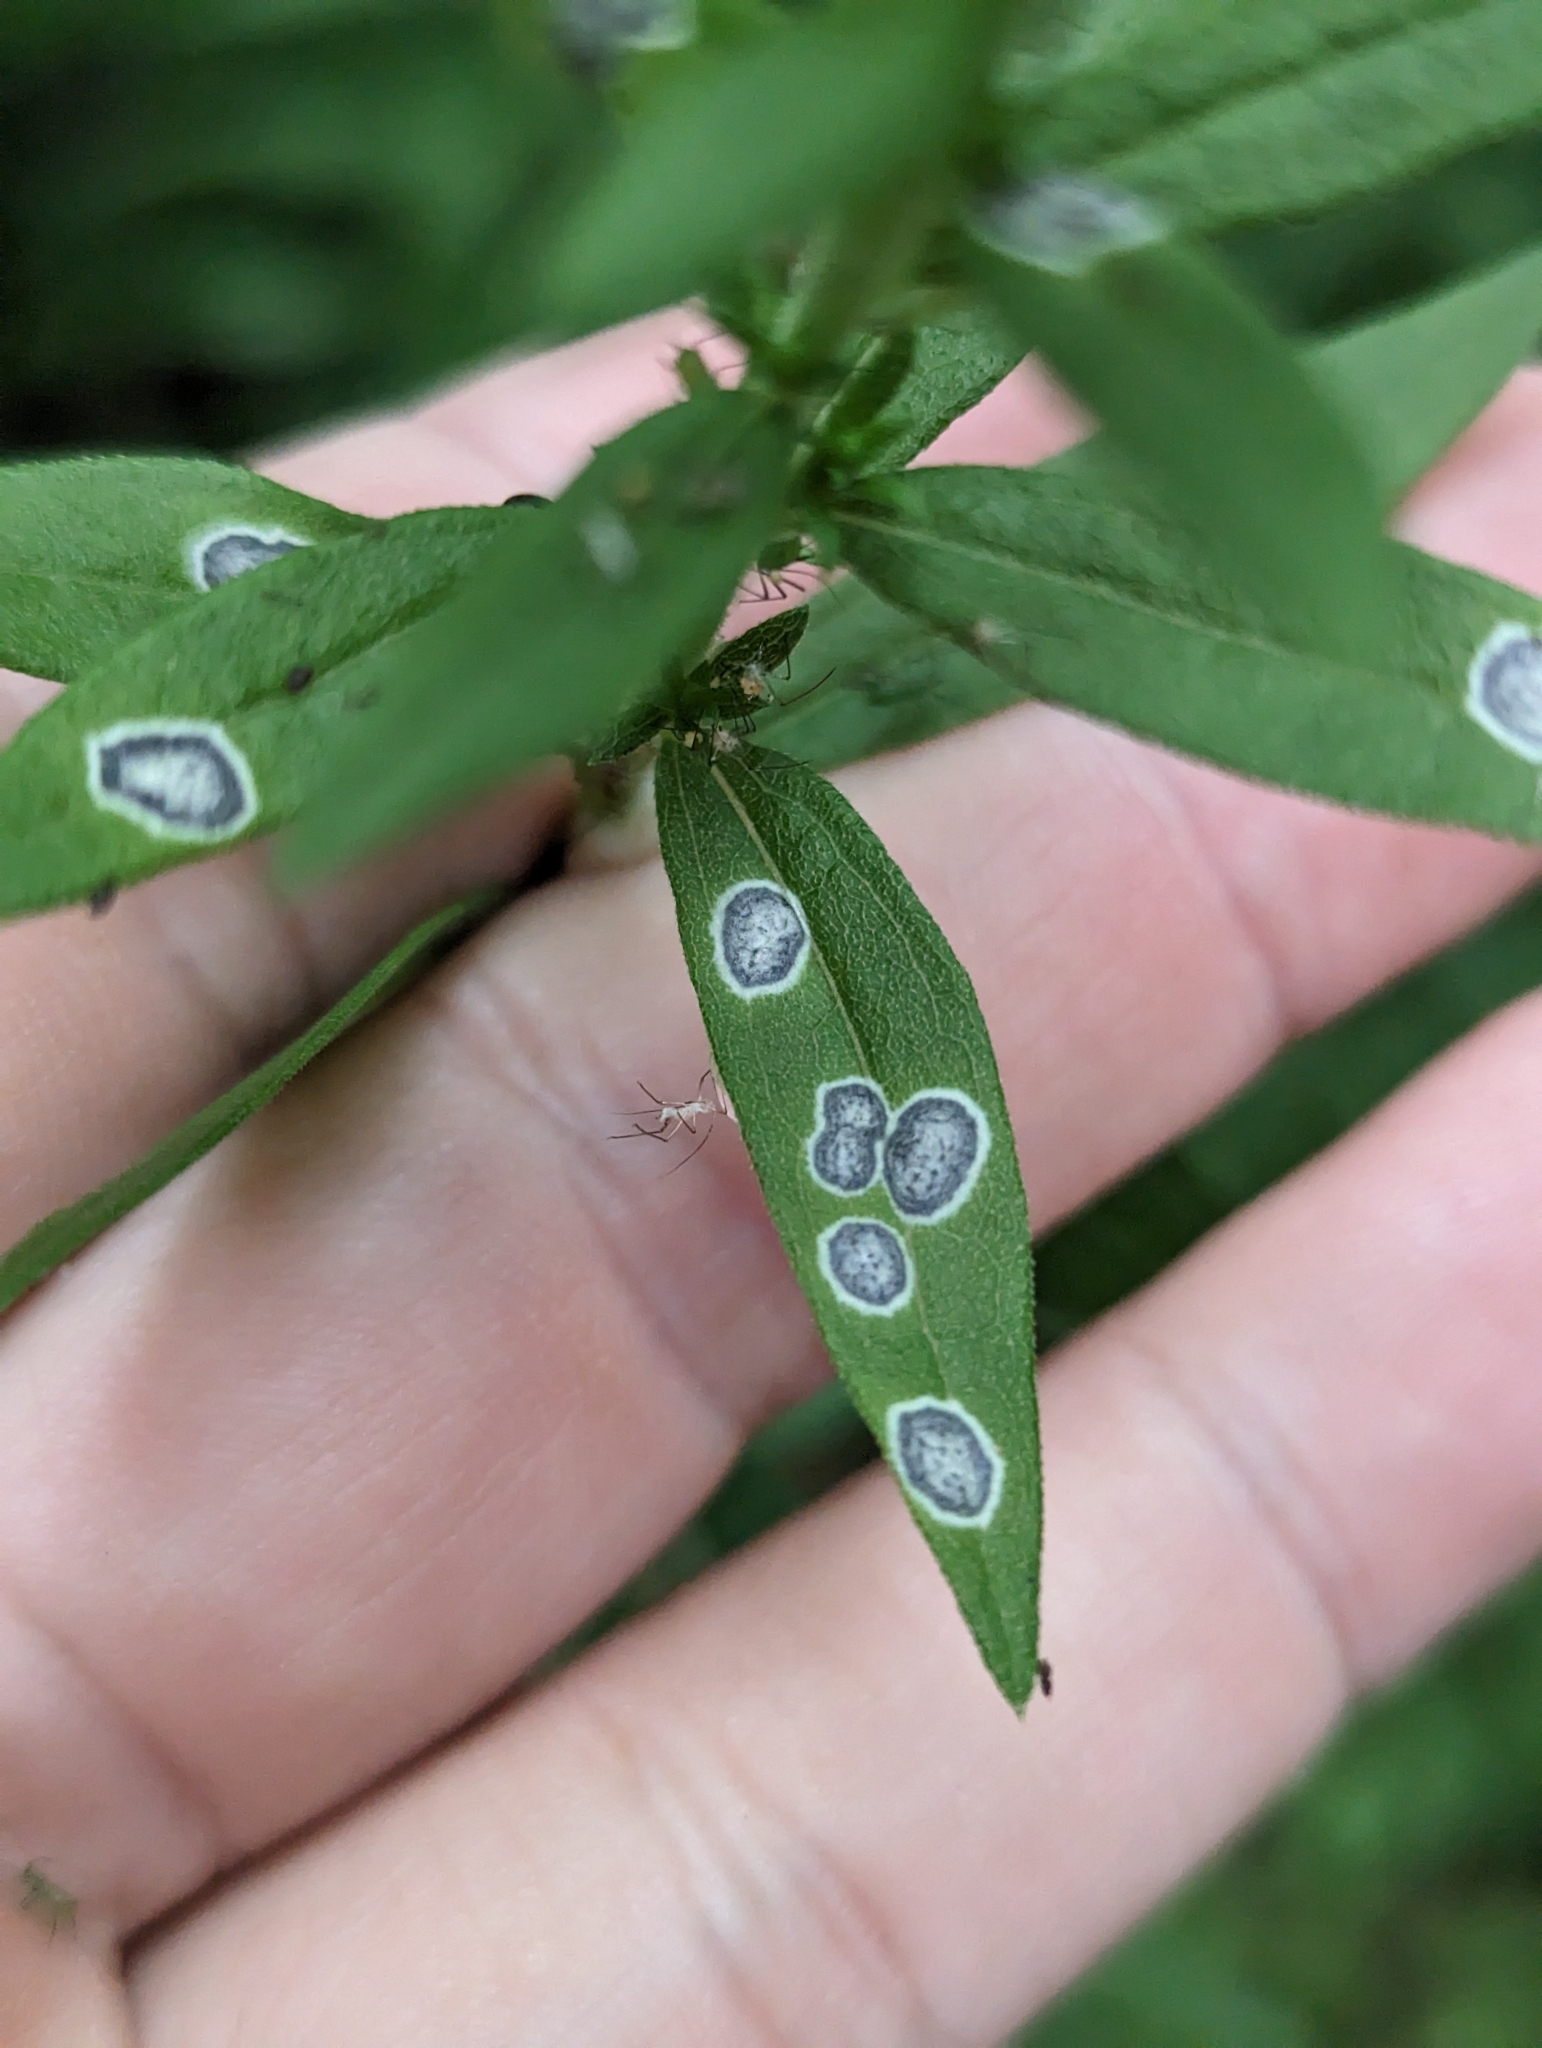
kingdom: Animalia
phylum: Arthropoda
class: Insecta
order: Diptera
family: Cecidomyiidae
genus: Asteromyia
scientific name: Asteromyia carbonifera
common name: Carbonifera goldenrod gall midge
